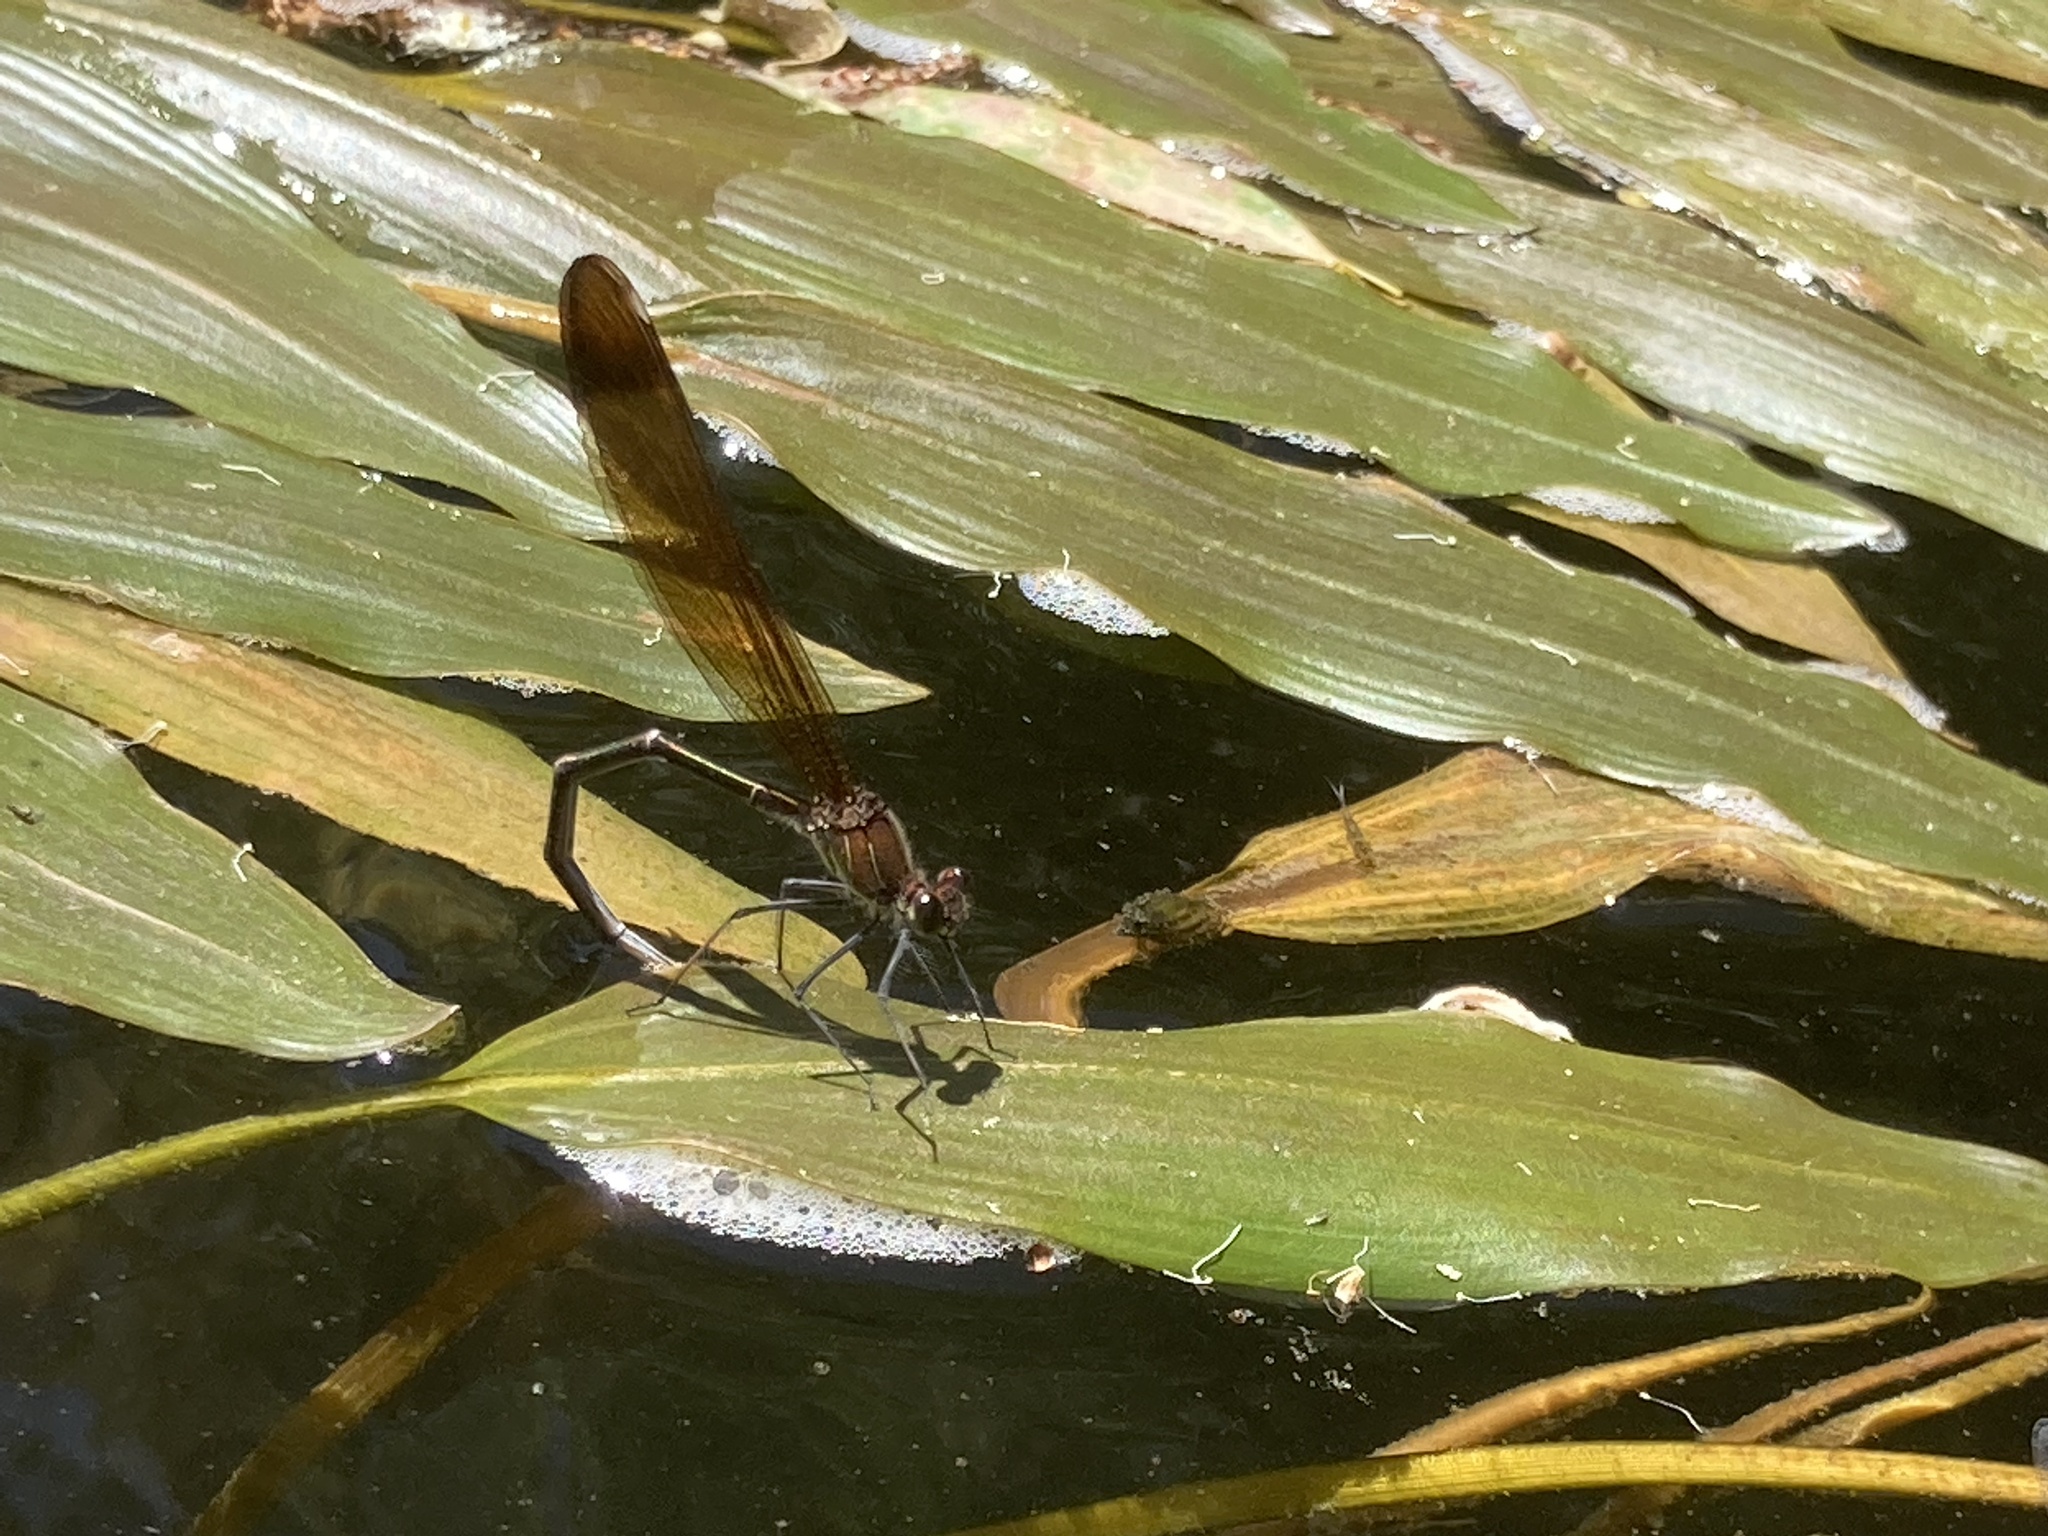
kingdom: Animalia
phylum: Arthropoda
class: Insecta
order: Odonata
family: Calopterygidae
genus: Calopteryx
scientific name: Calopteryx haemorrhoidalis
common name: Copper demoiselle
